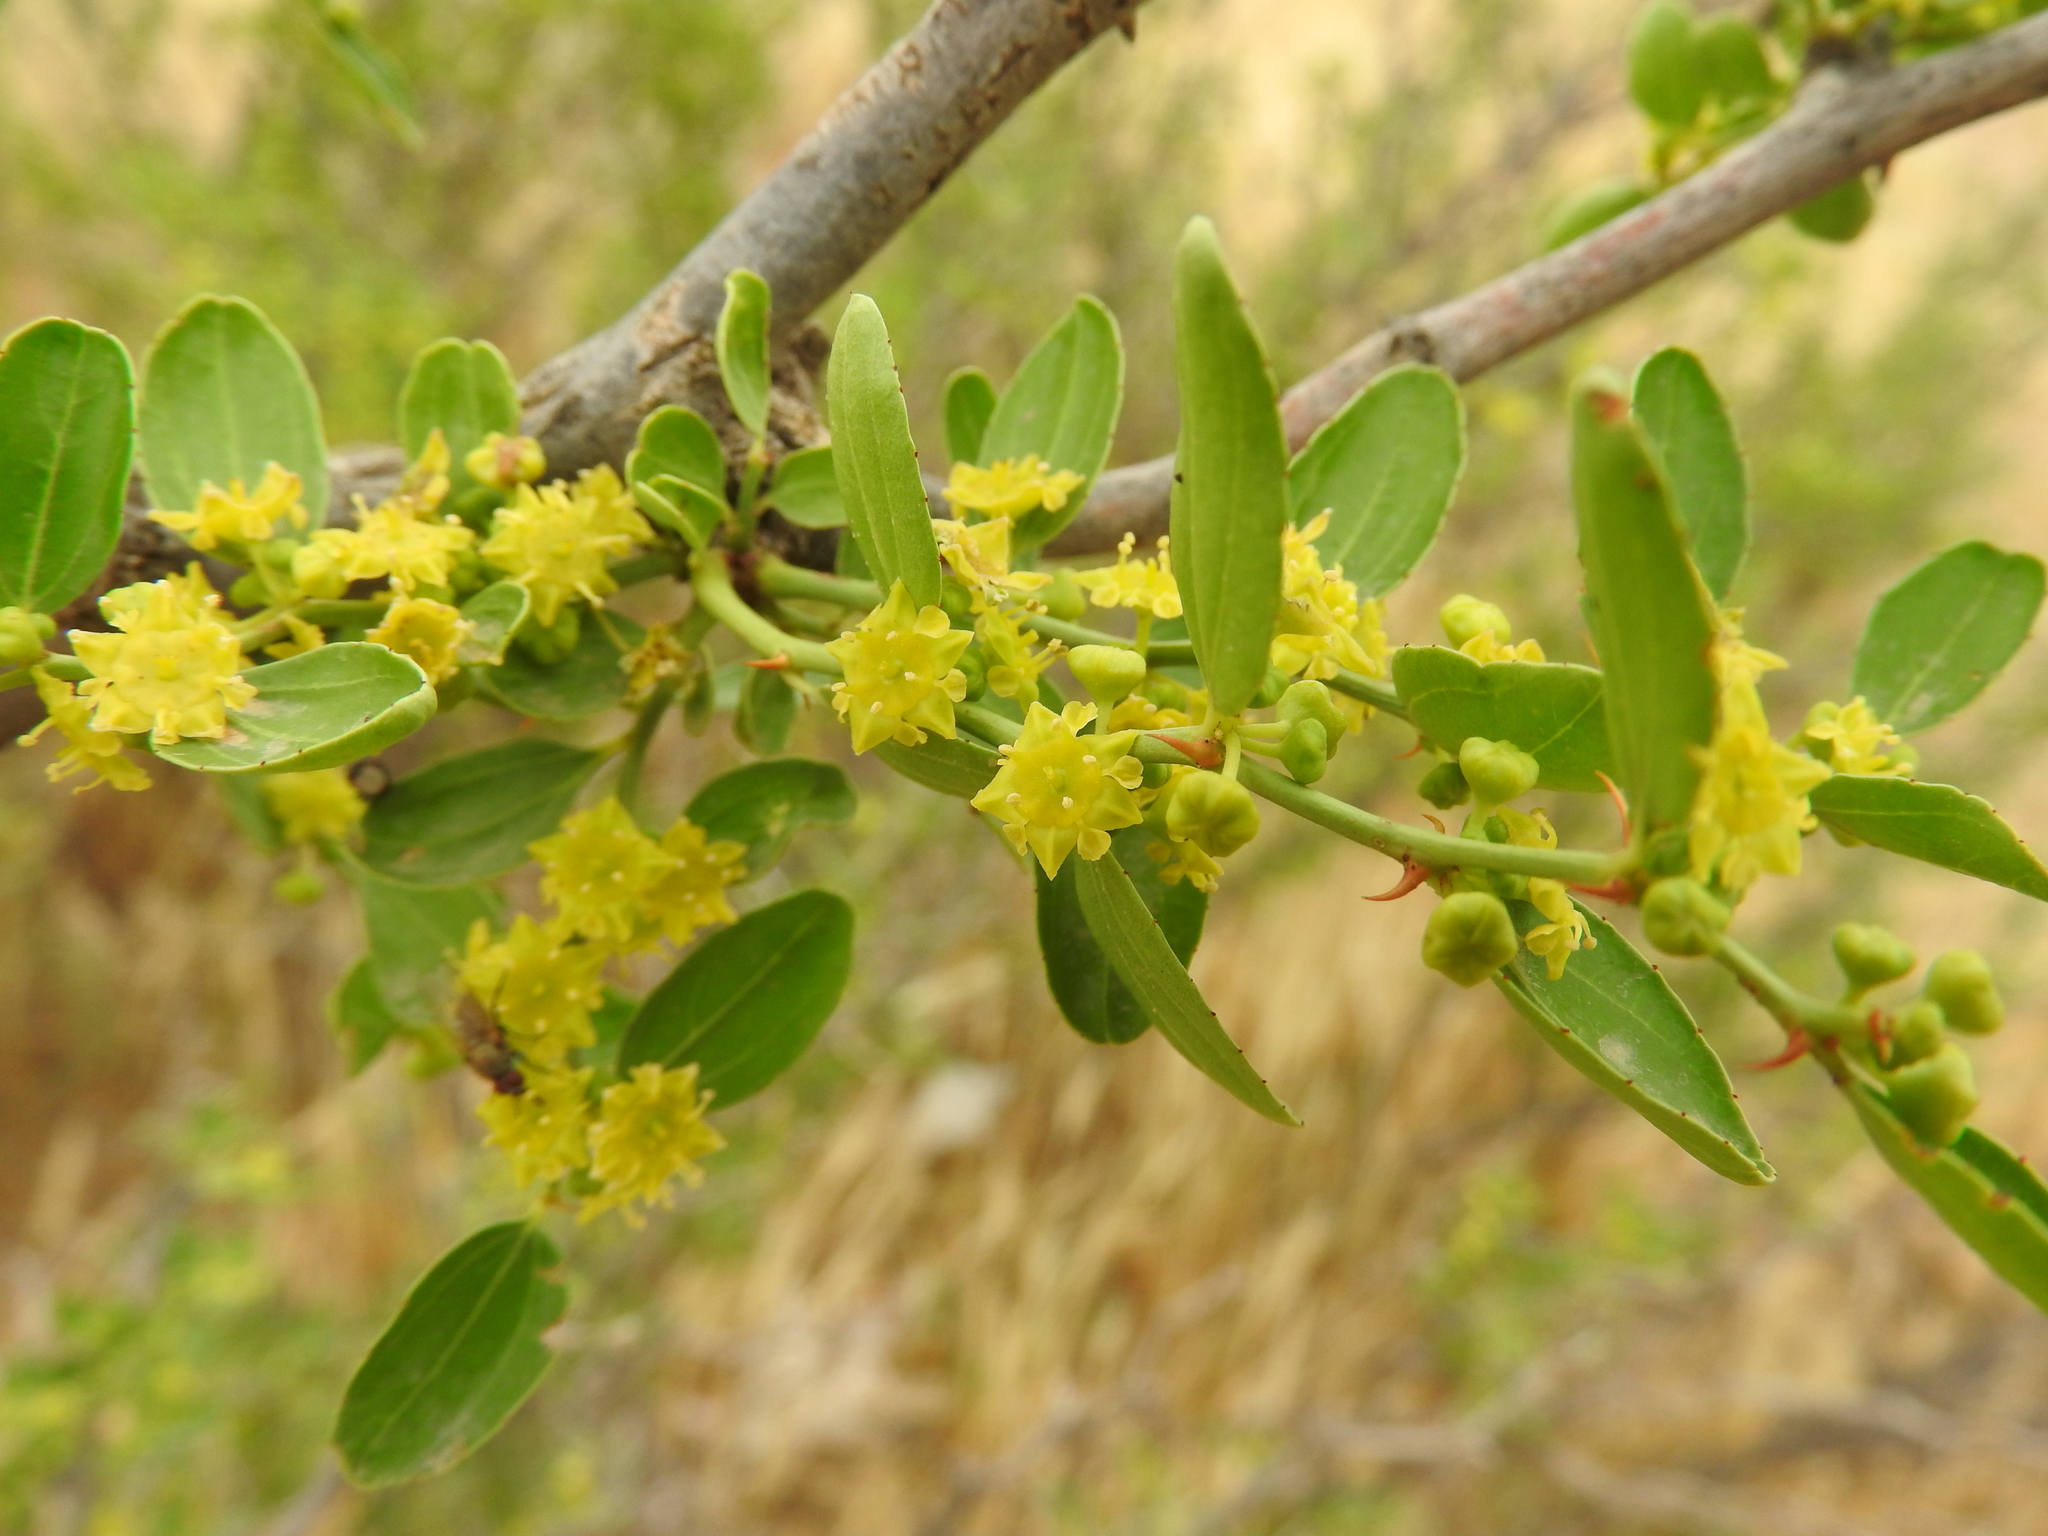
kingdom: Plantae
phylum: Tracheophyta
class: Magnoliopsida
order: Rosales
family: Rhamnaceae
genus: Ziziphus
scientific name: Ziziphus lotus
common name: Lotus
